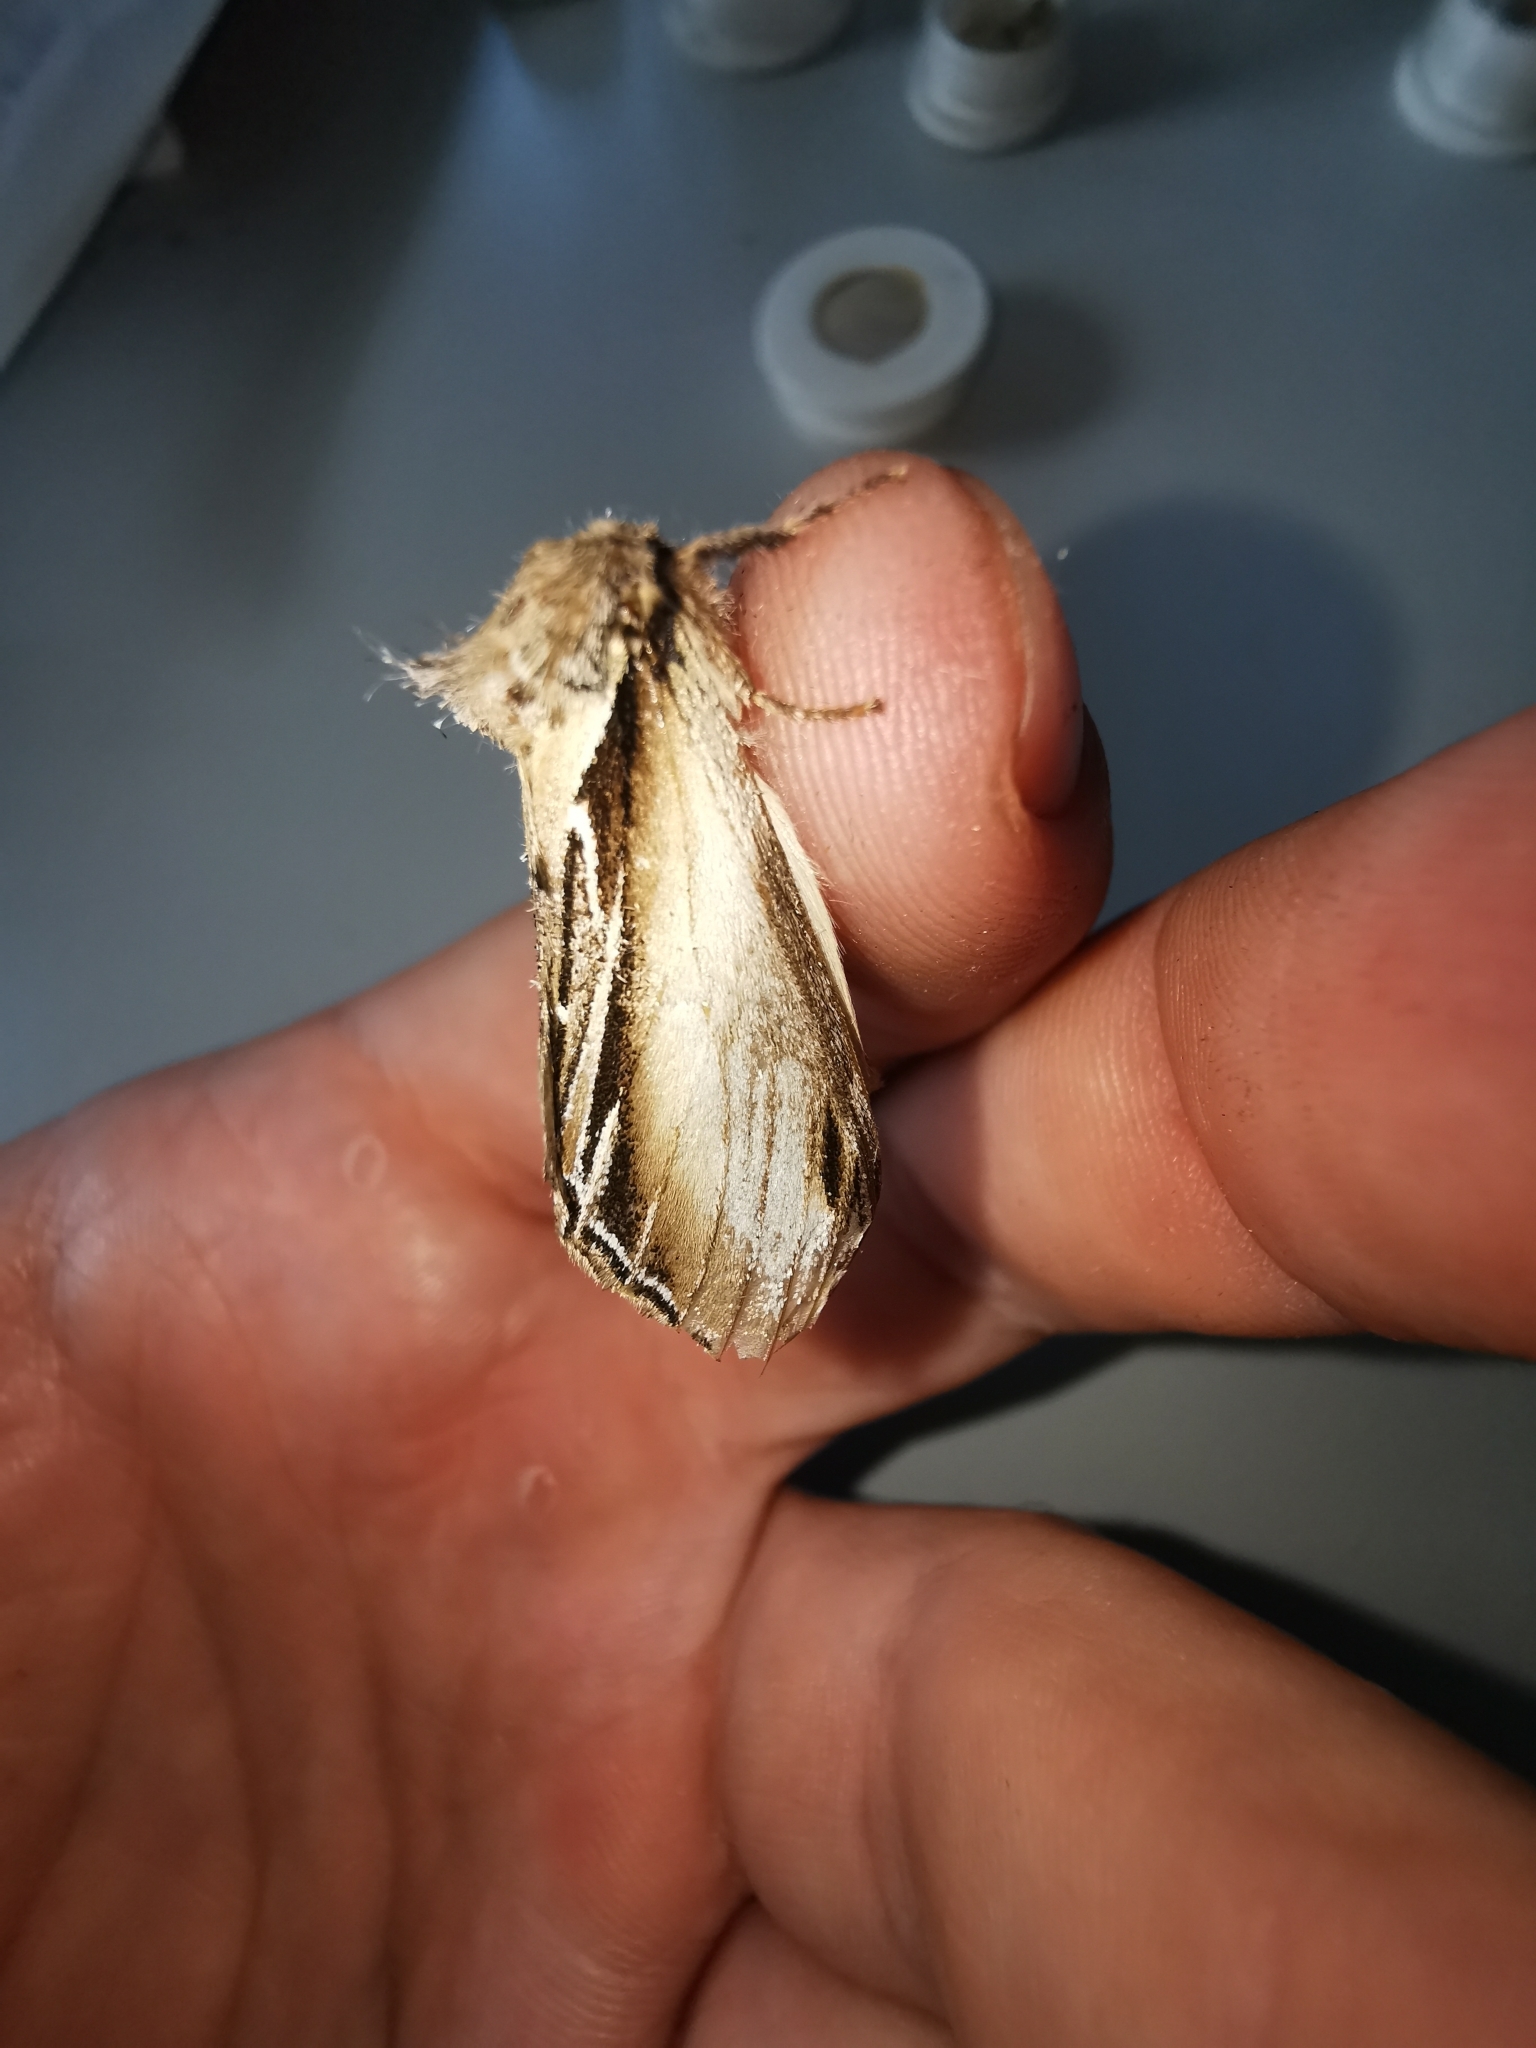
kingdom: Animalia
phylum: Arthropoda
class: Insecta
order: Lepidoptera
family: Notodontidae
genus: Pheosia
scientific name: Pheosia tremula
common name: Swallow prominent
